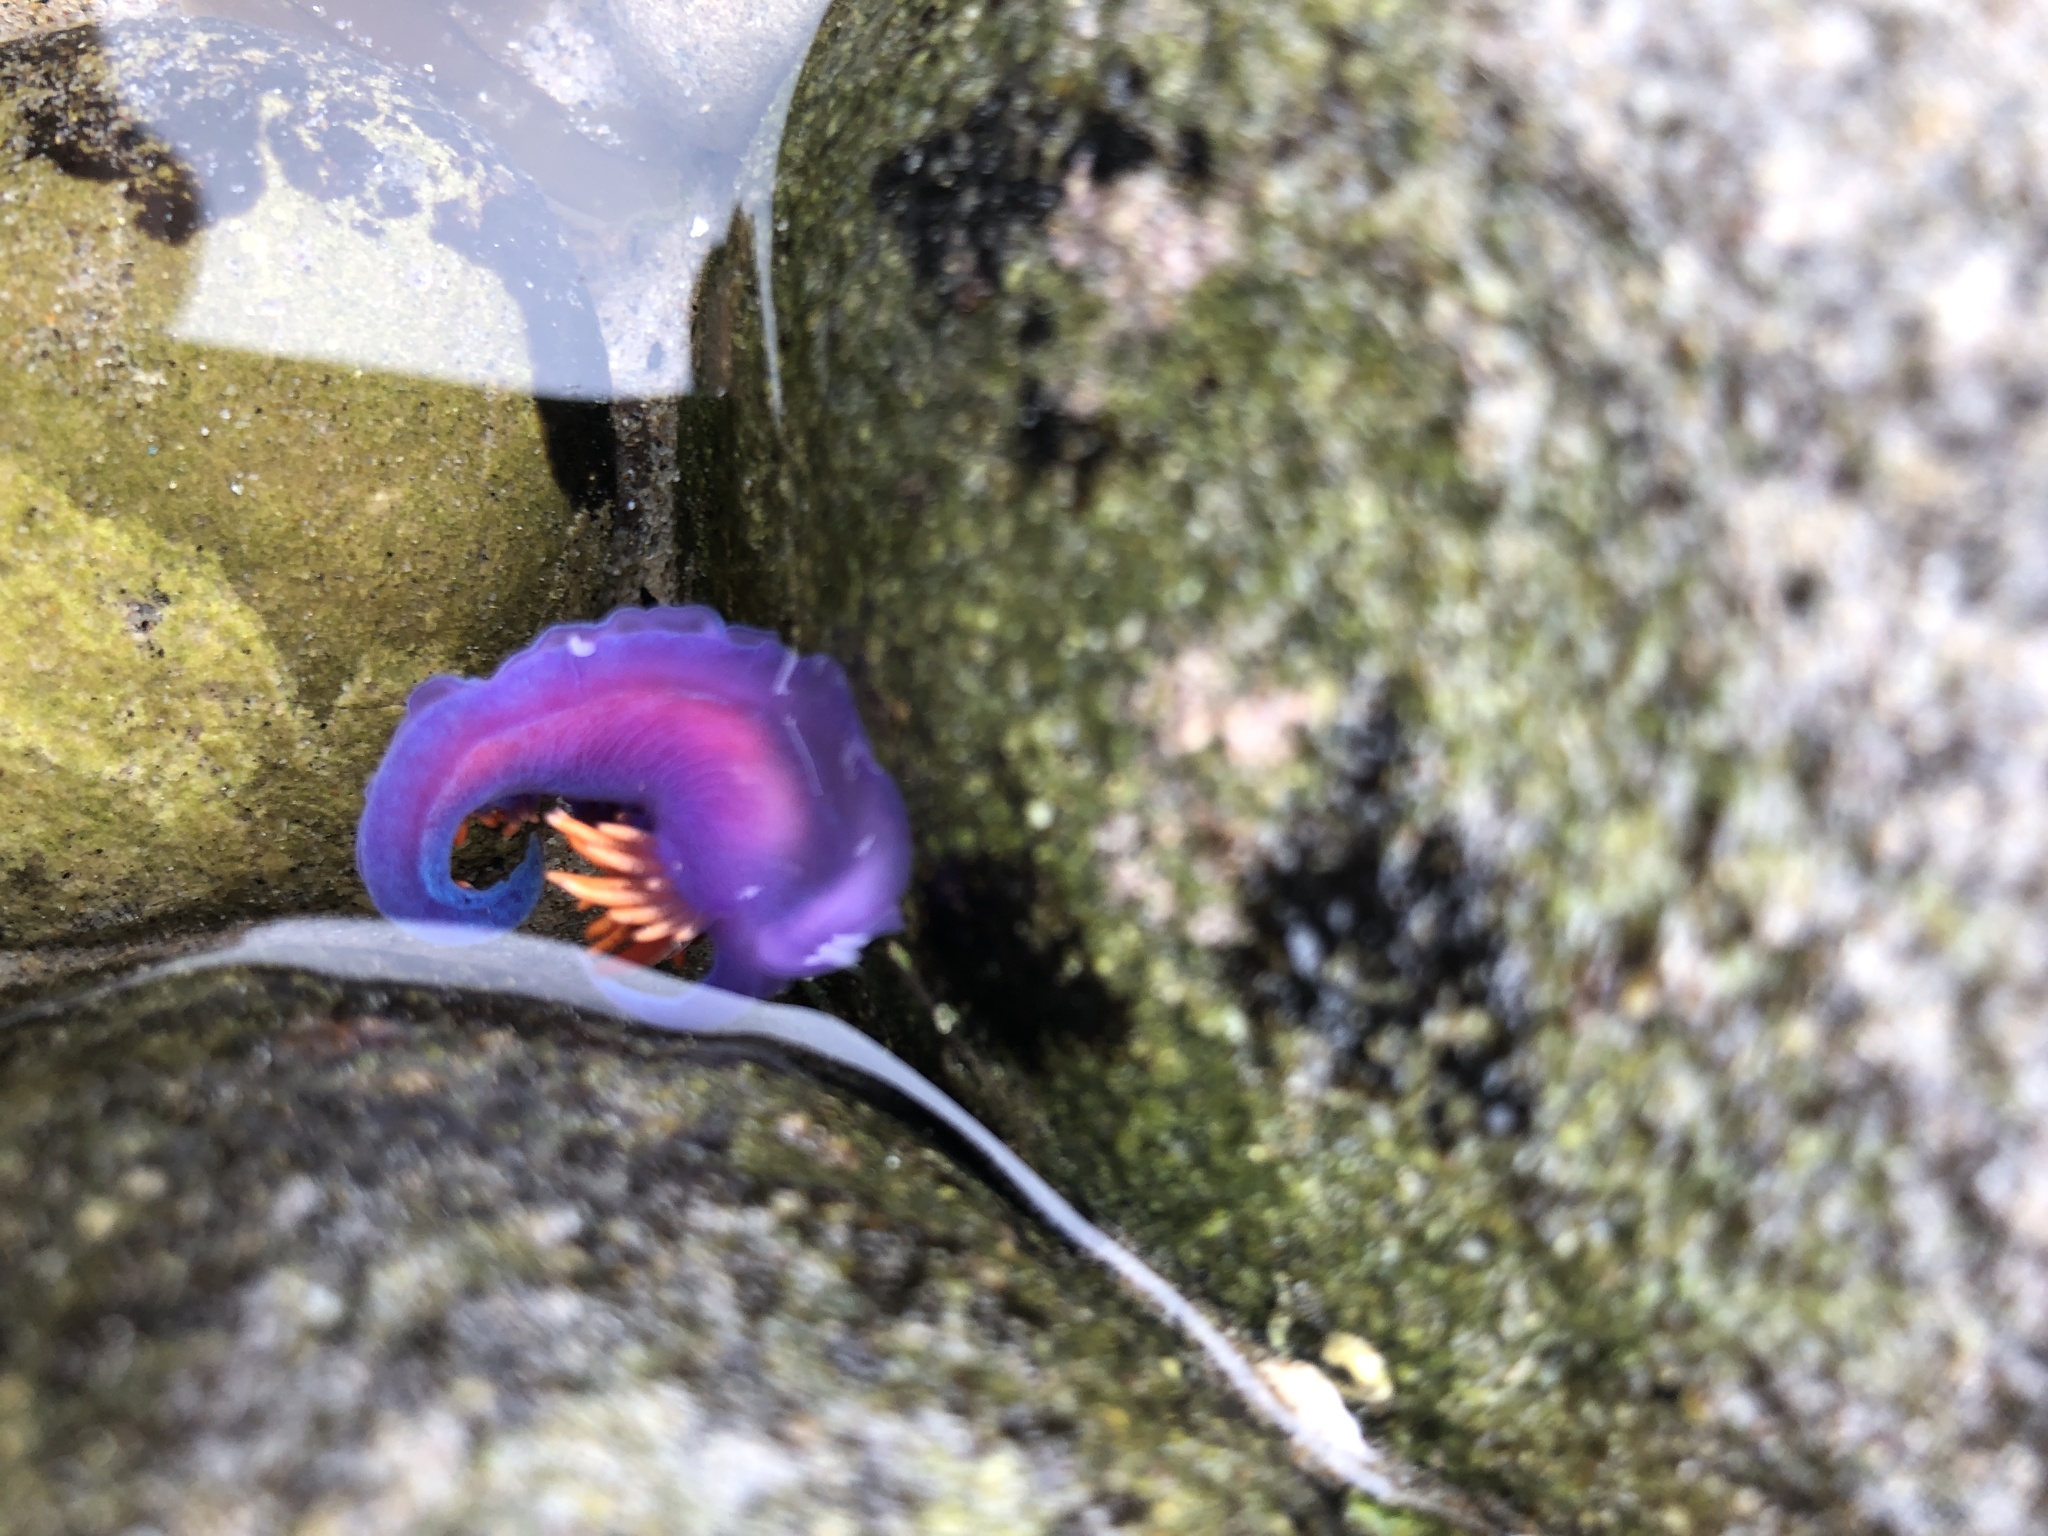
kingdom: Animalia
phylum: Mollusca
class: Gastropoda
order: Nudibranchia
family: Flabellinopsidae
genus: Flabellinopsis
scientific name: Flabellinopsis iodinea
